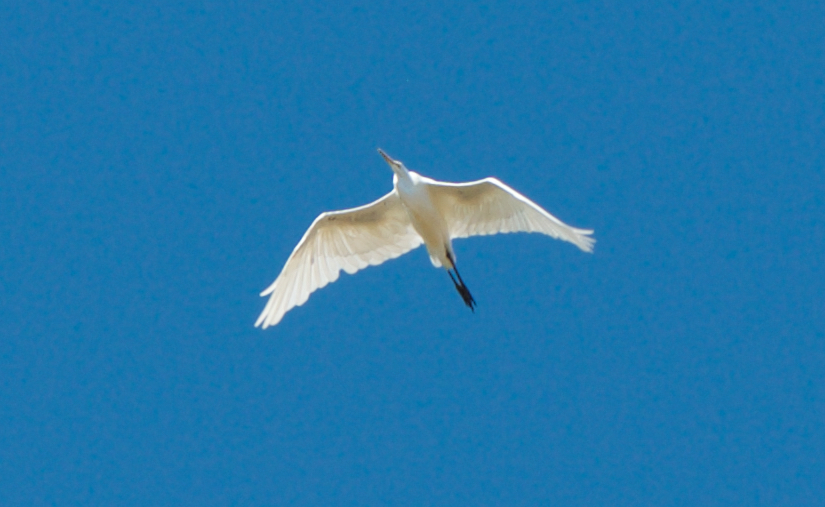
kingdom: Animalia
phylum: Chordata
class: Aves
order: Pelecaniformes
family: Ardeidae
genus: Ardea
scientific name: Ardea alba
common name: Great egret
